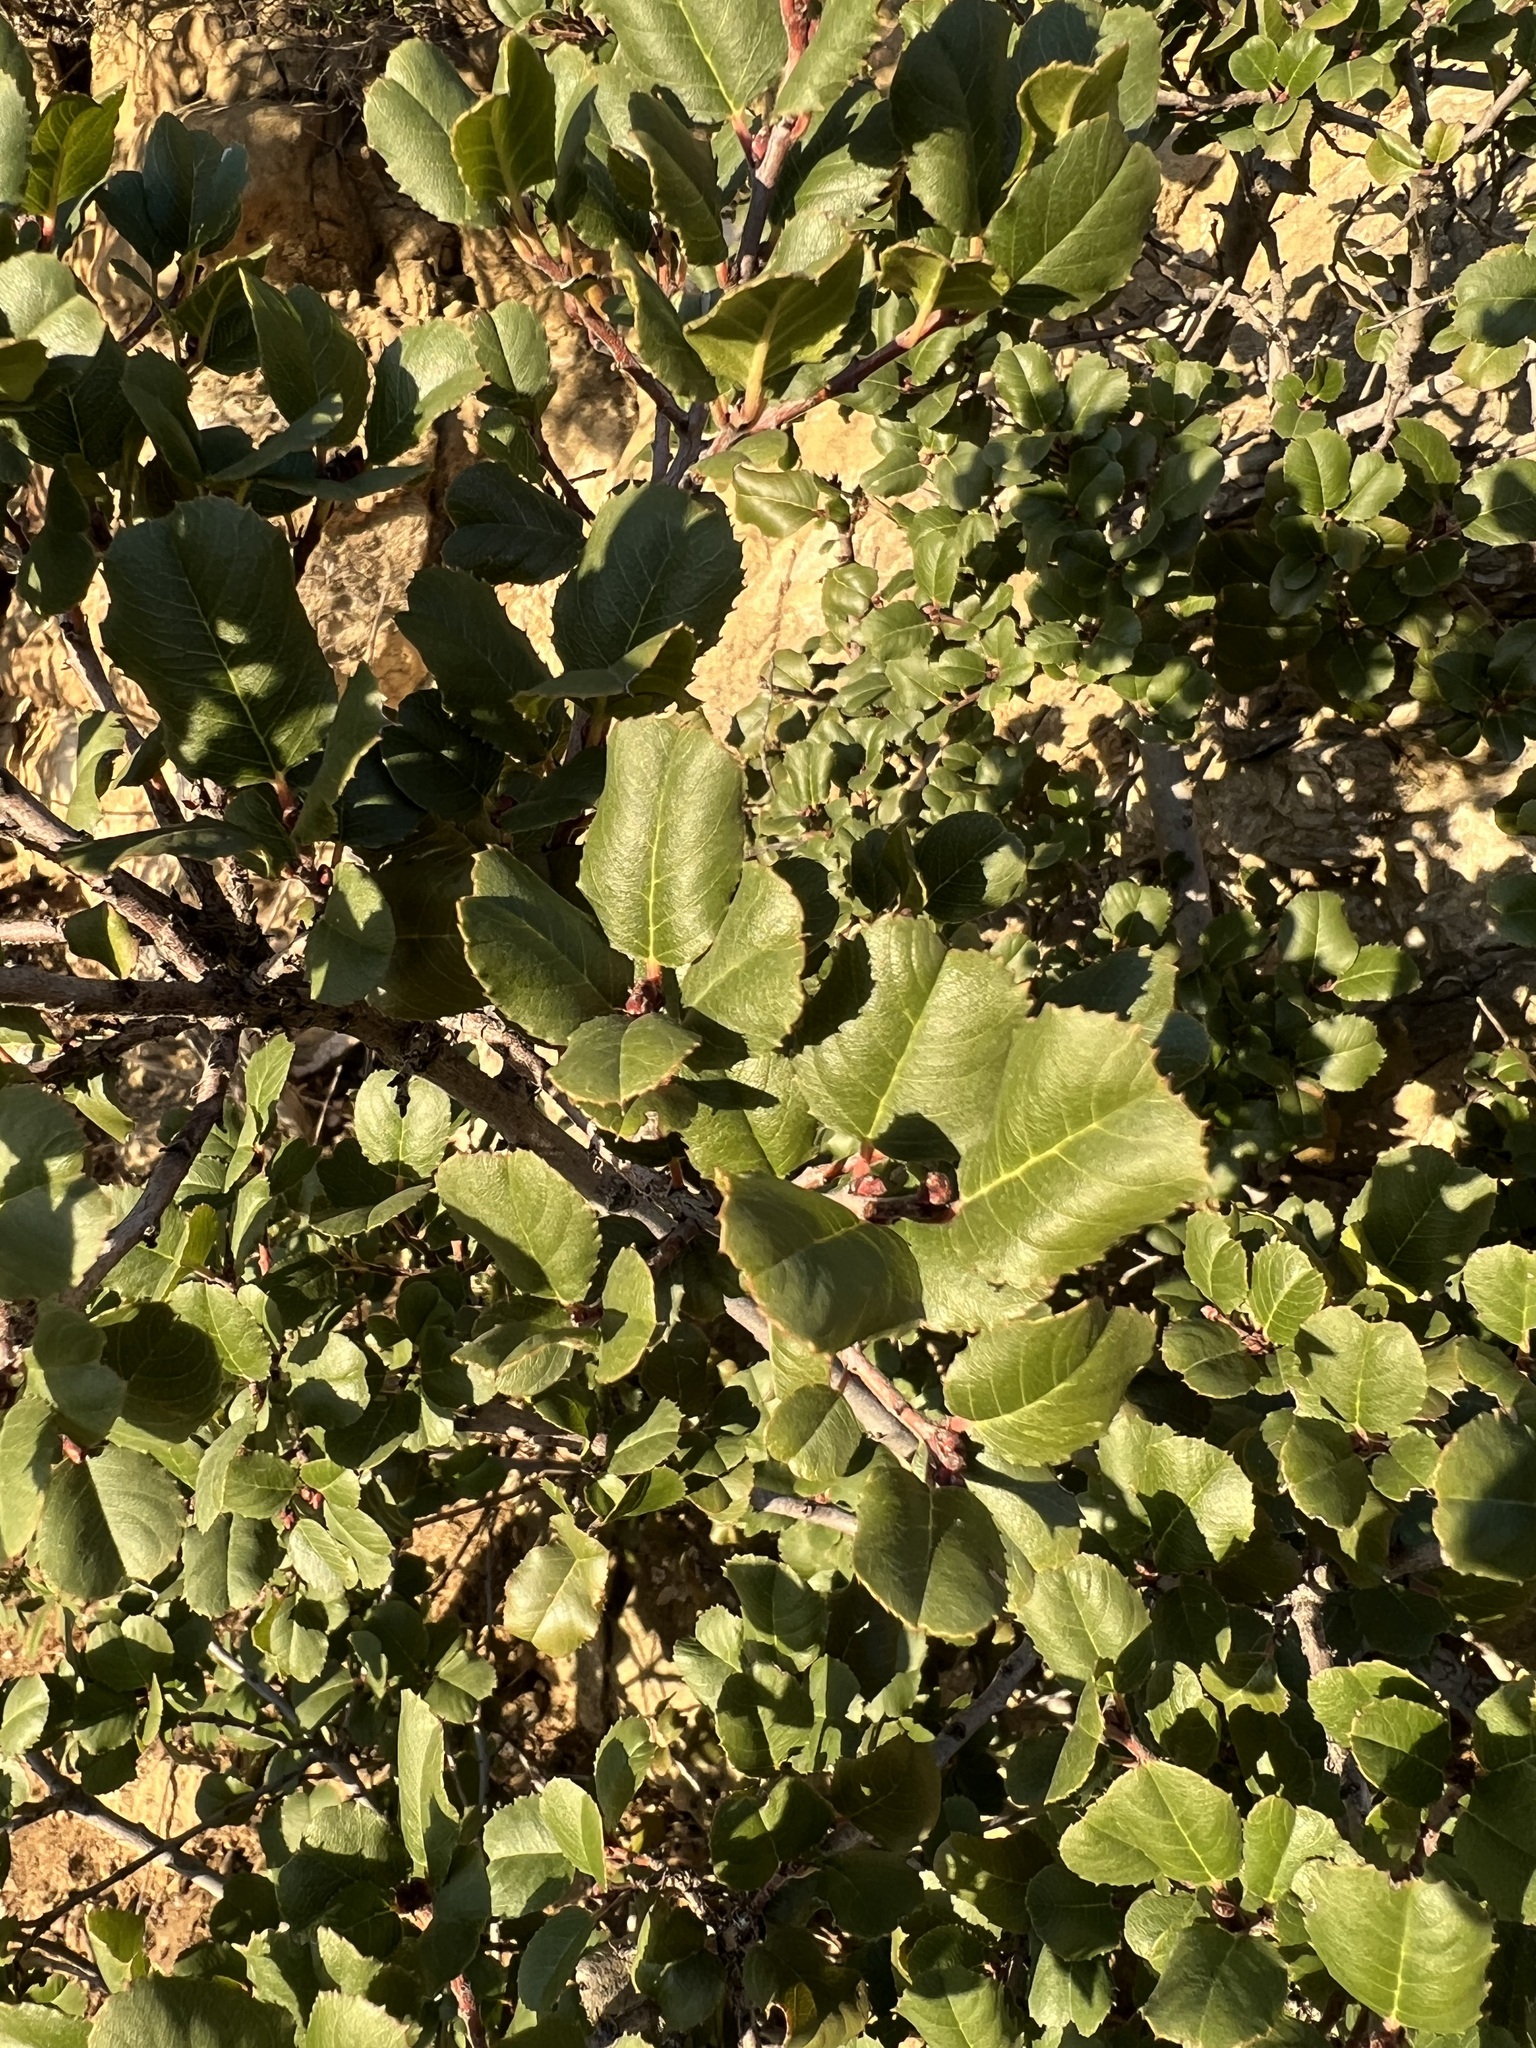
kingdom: Plantae
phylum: Tracheophyta
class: Magnoliopsida
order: Rosales
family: Rhamnaceae
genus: Endotropis
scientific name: Endotropis crocea
